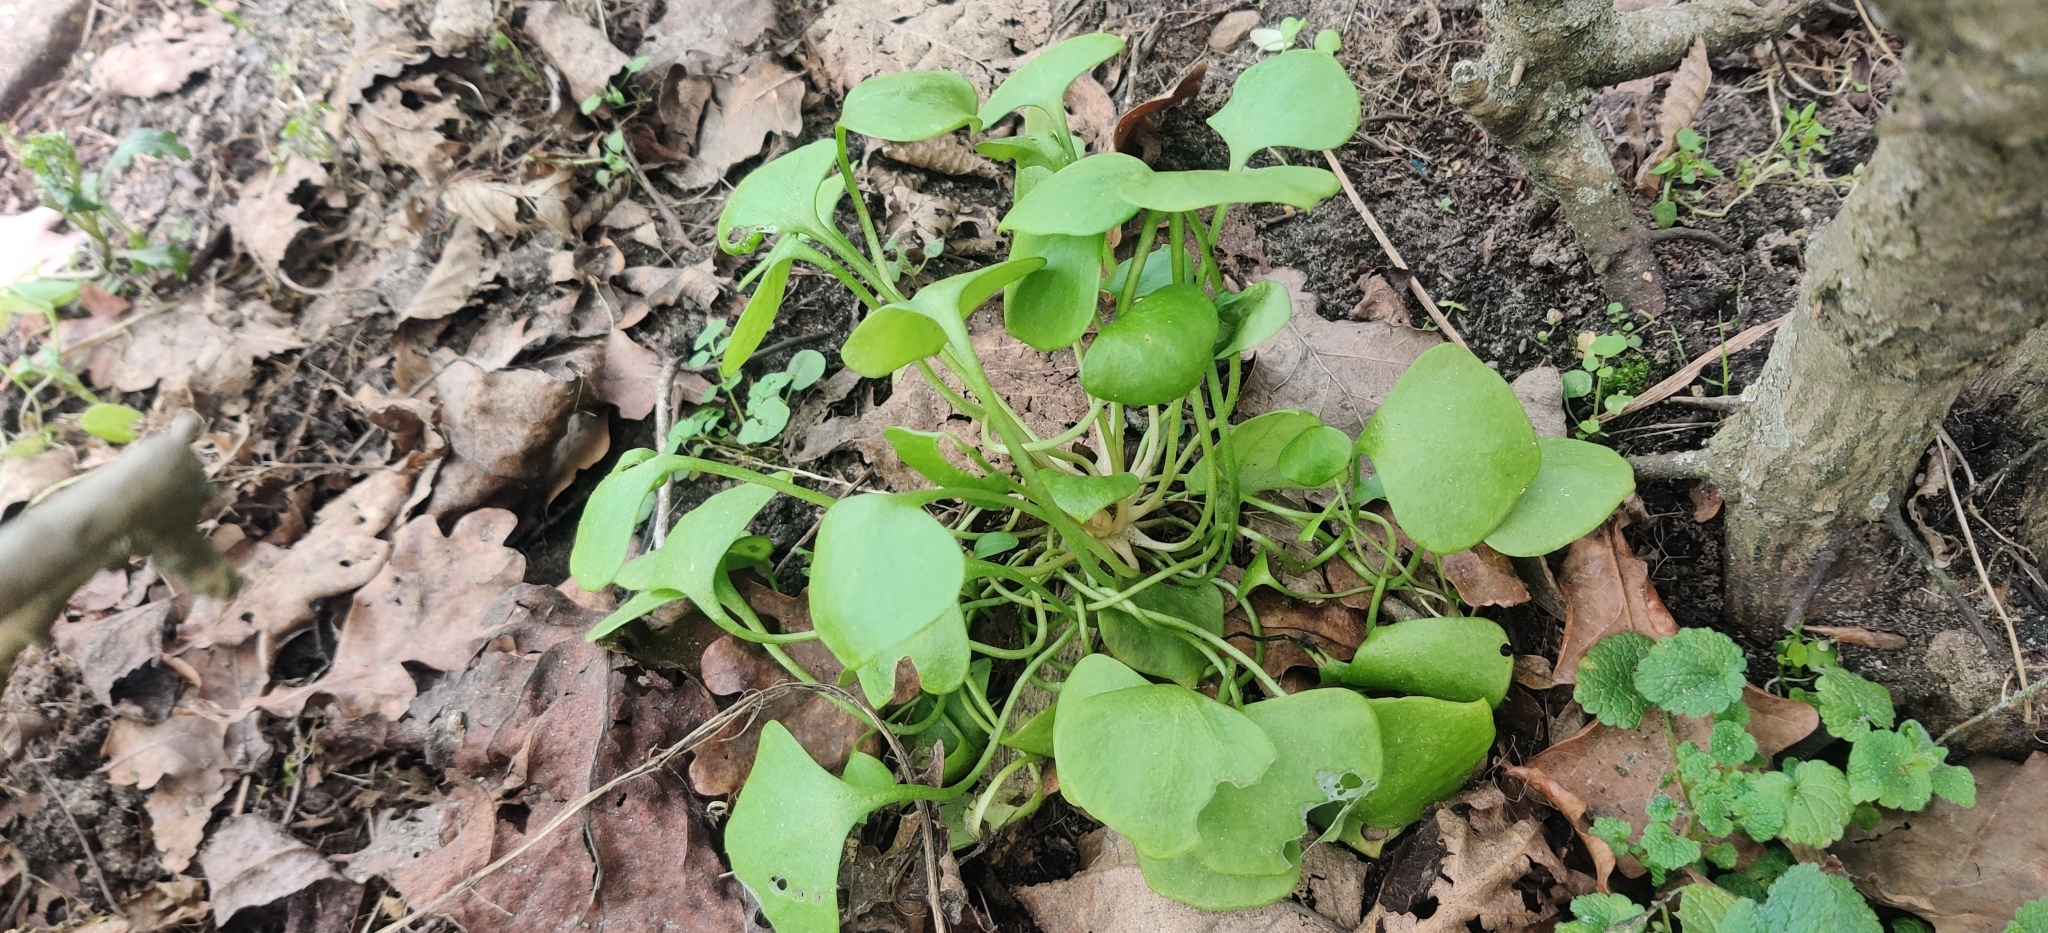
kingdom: Plantae
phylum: Tracheophyta
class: Magnoliopsida
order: Caryophyllales
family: Montiaceae
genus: Claytonia
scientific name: Claytonia perfoliata
